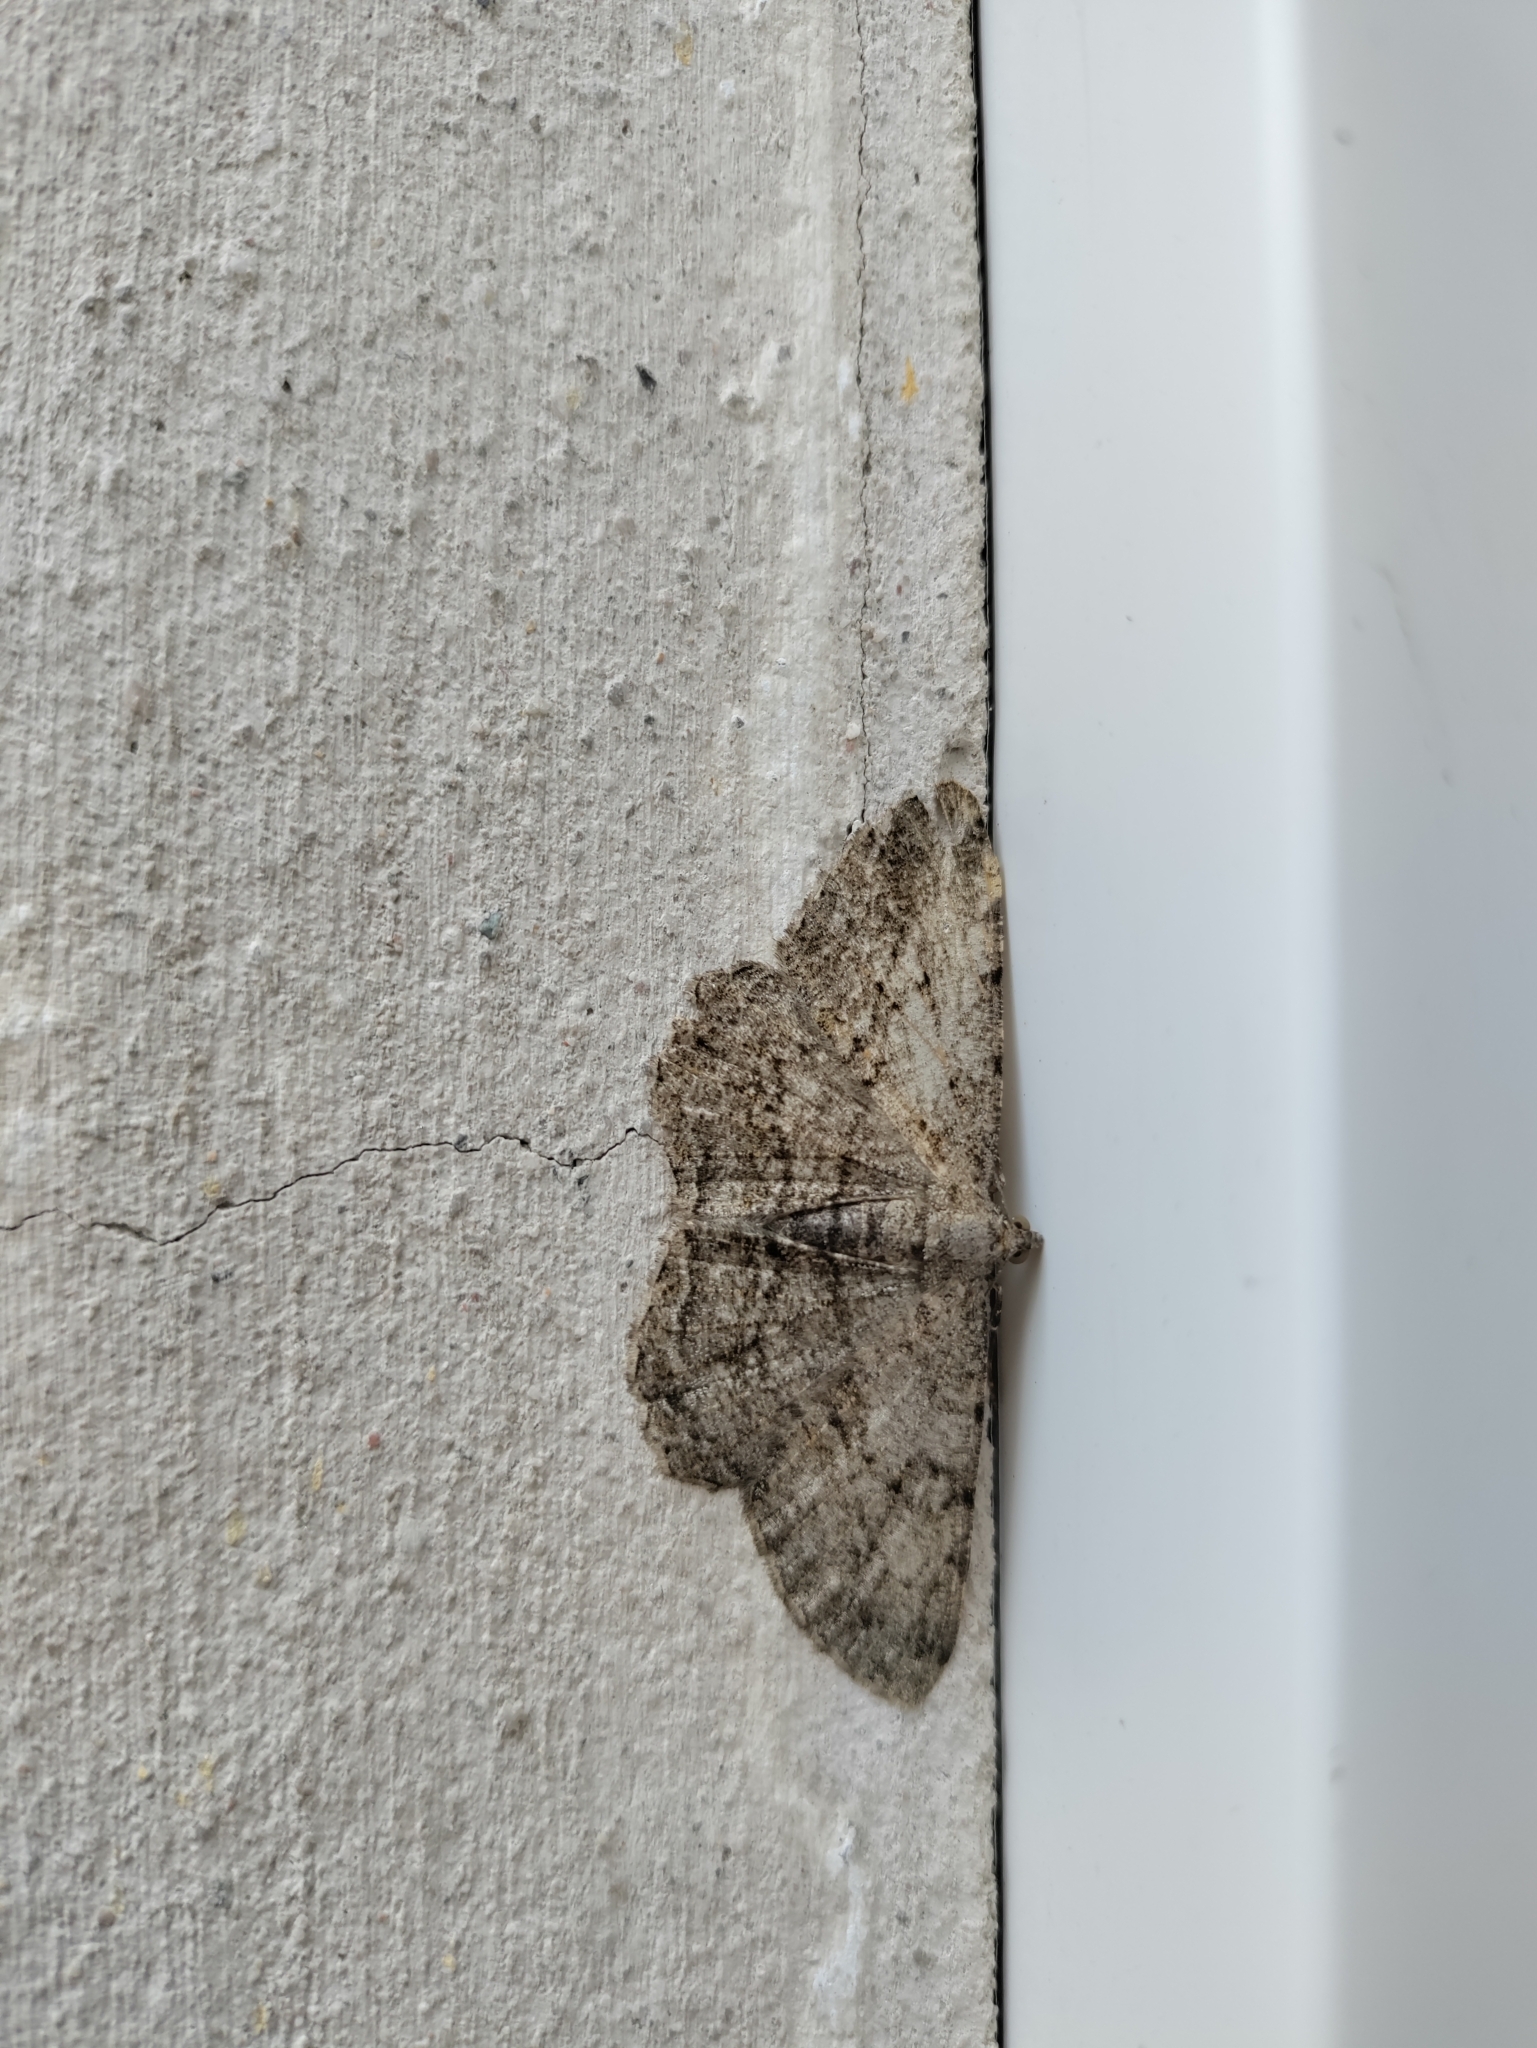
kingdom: Animalia
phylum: Arthropoda
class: Insecta
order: Lepidoptera
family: Geometridae
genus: Peribatodes
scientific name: Peribatodes rhomboidaria
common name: Willow beauty
